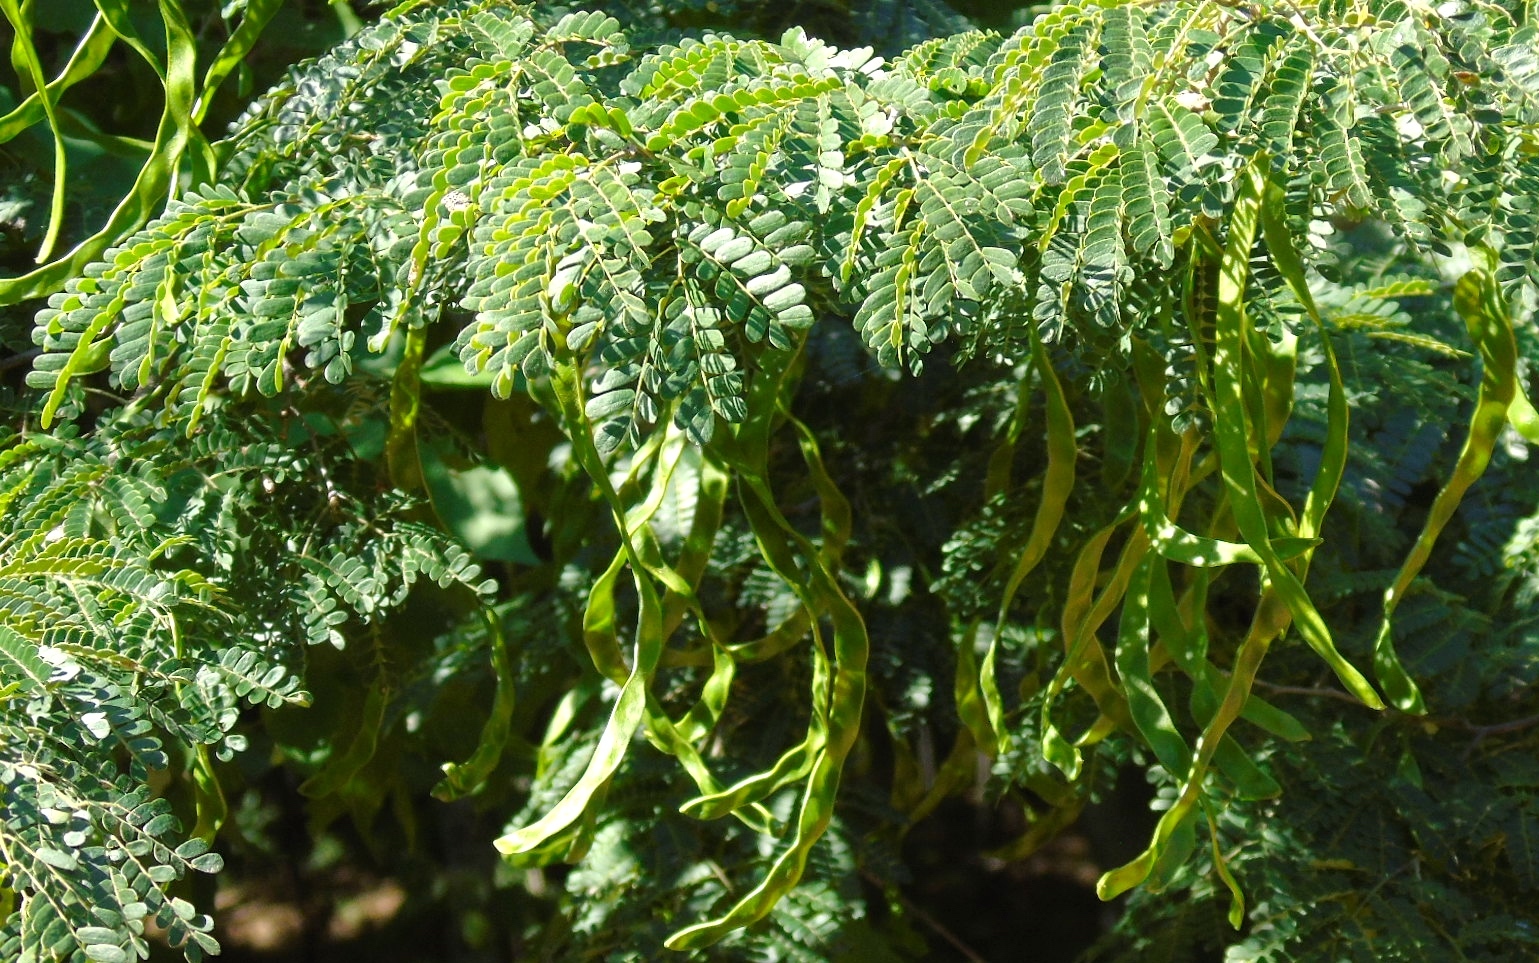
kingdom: Plantae
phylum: Tracheophyta
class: Magnoliopsida
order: Fabales
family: Fabaceae
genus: Chloroleucon
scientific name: Chloroleucon mangense
